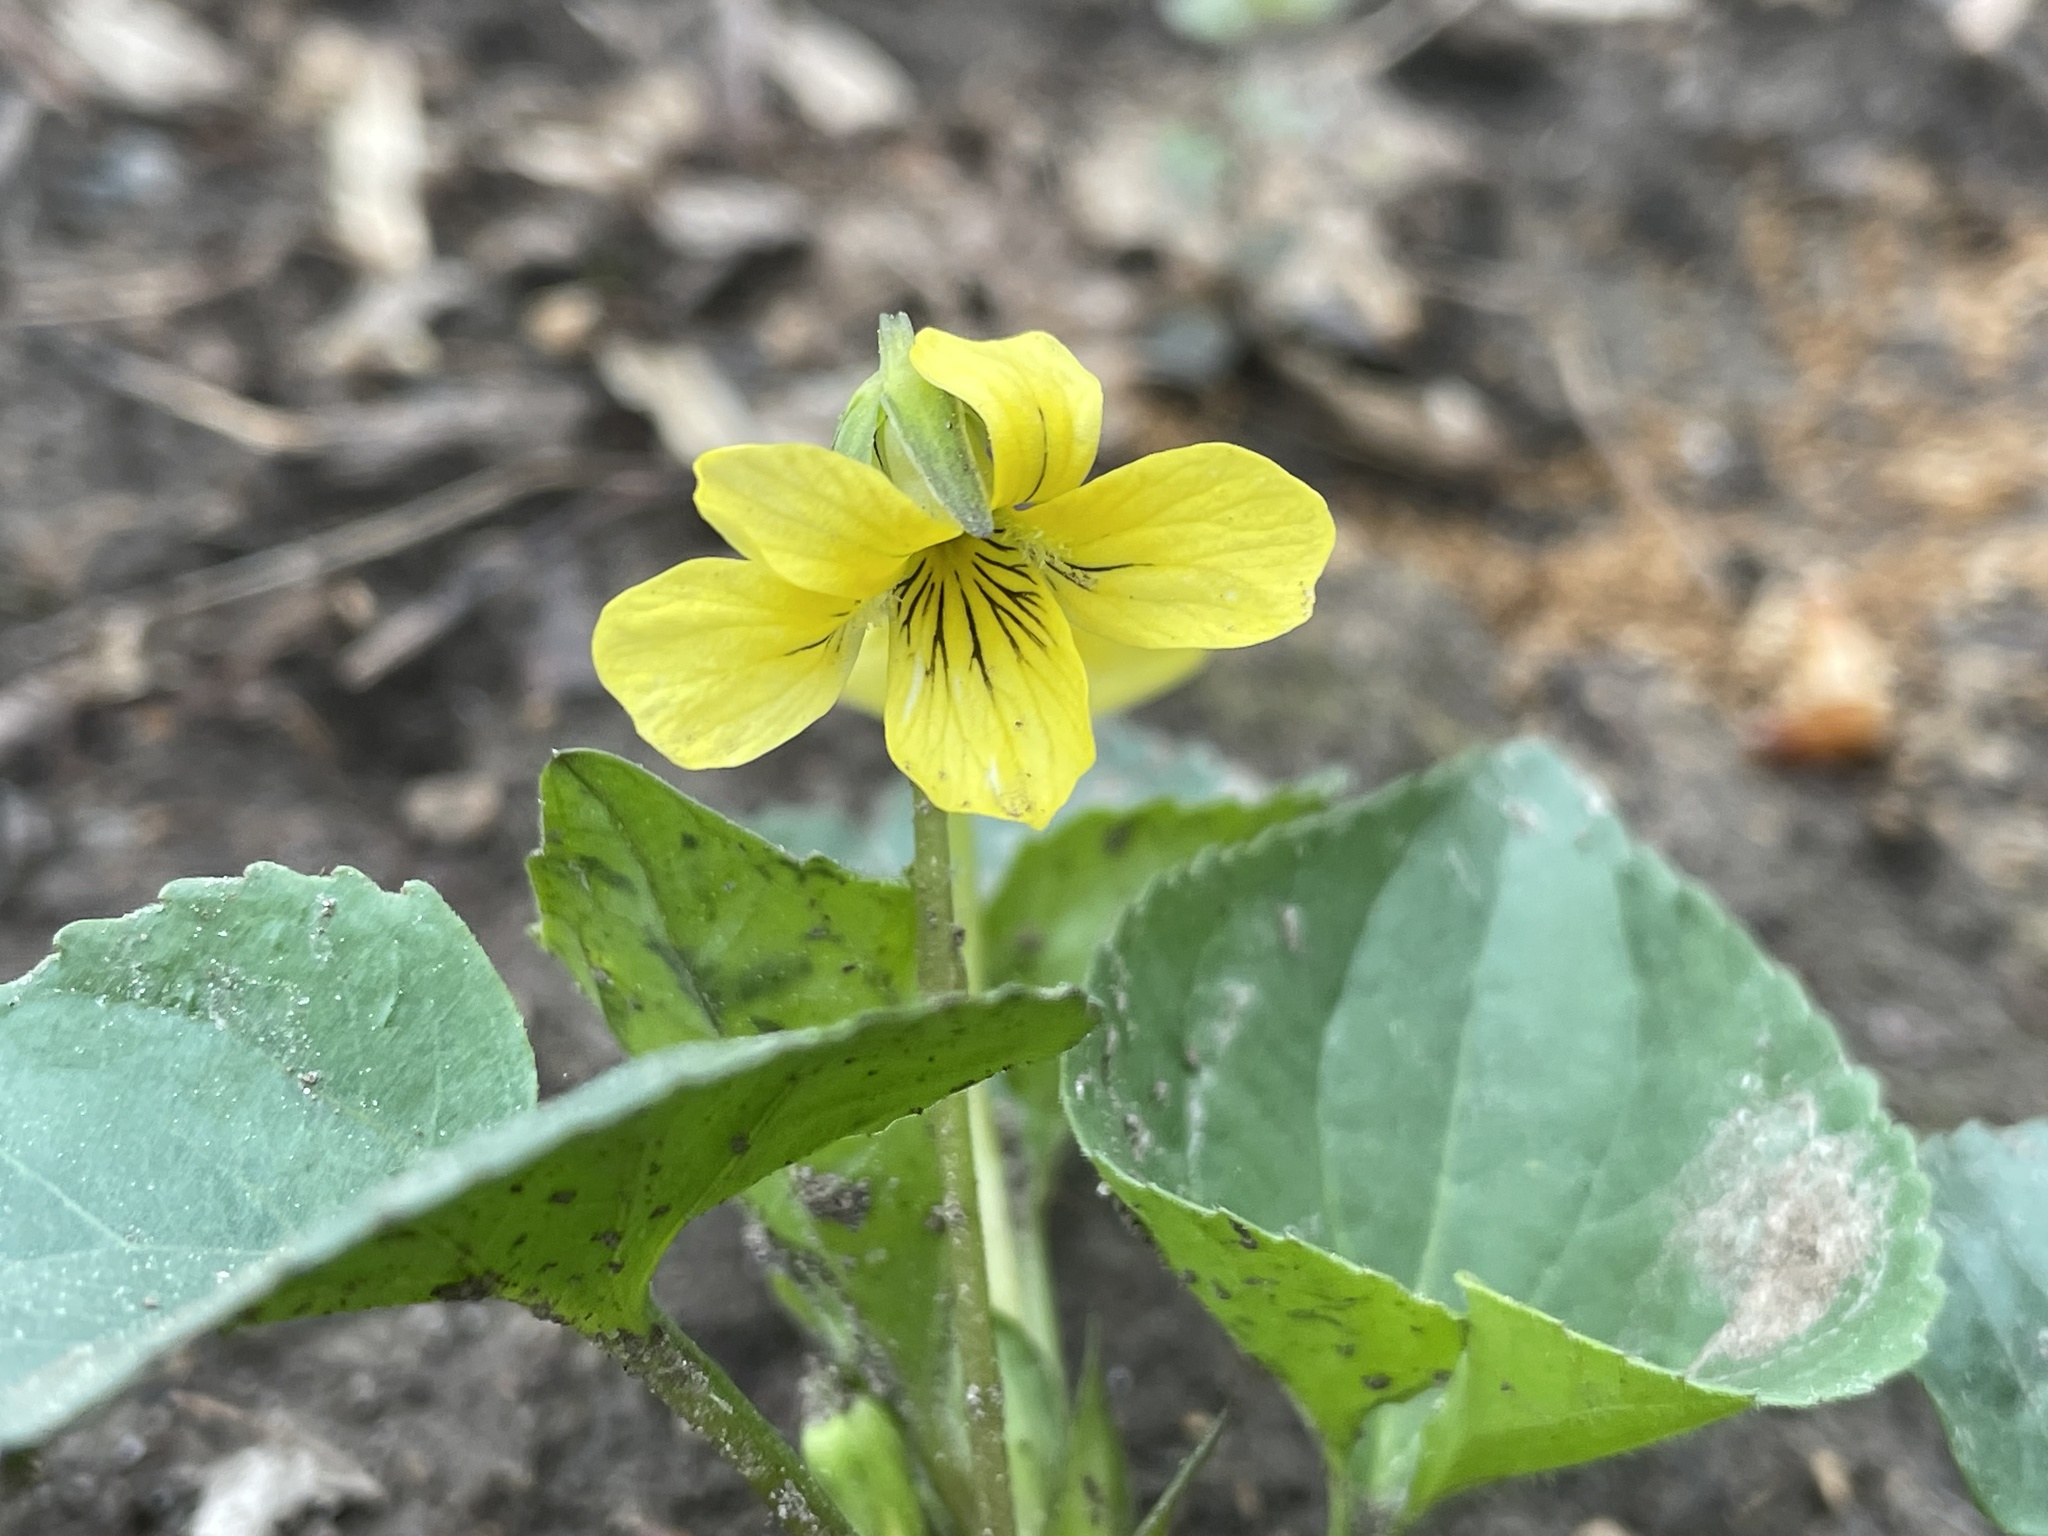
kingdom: Plantae
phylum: Tracheophyta
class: Magnoliopsida
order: Malpighiales
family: Violaceae
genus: Viola
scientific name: Viola eriocarpa
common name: Smooth yellow violet
